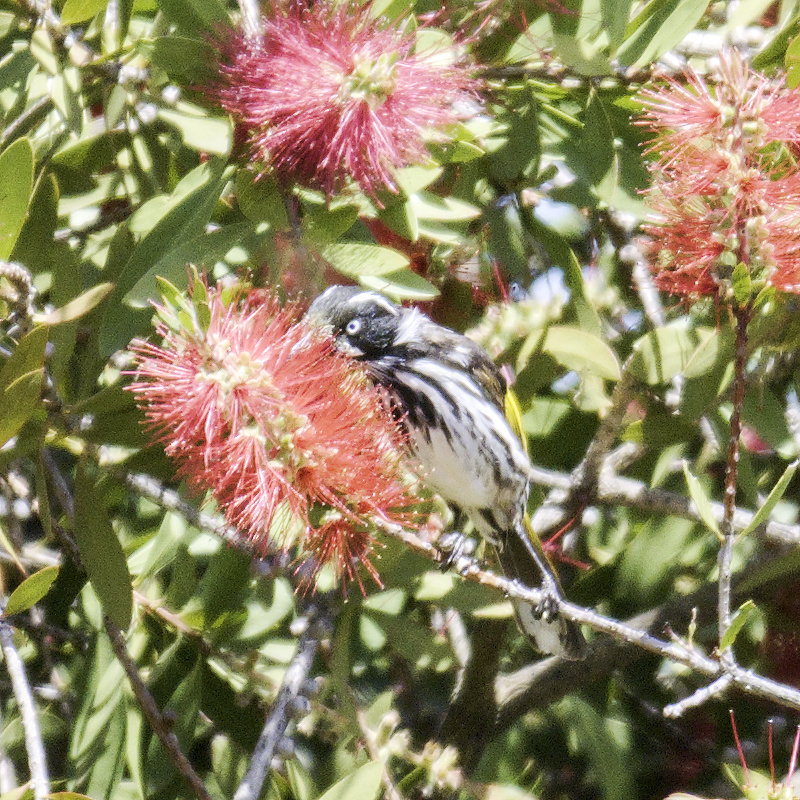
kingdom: Animalia
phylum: Chordata
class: Aves
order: Passeriformes
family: Meliphagidae
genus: Phylidonyris
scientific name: Phylidonyris novaehollandiae
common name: New holland honeyeater
